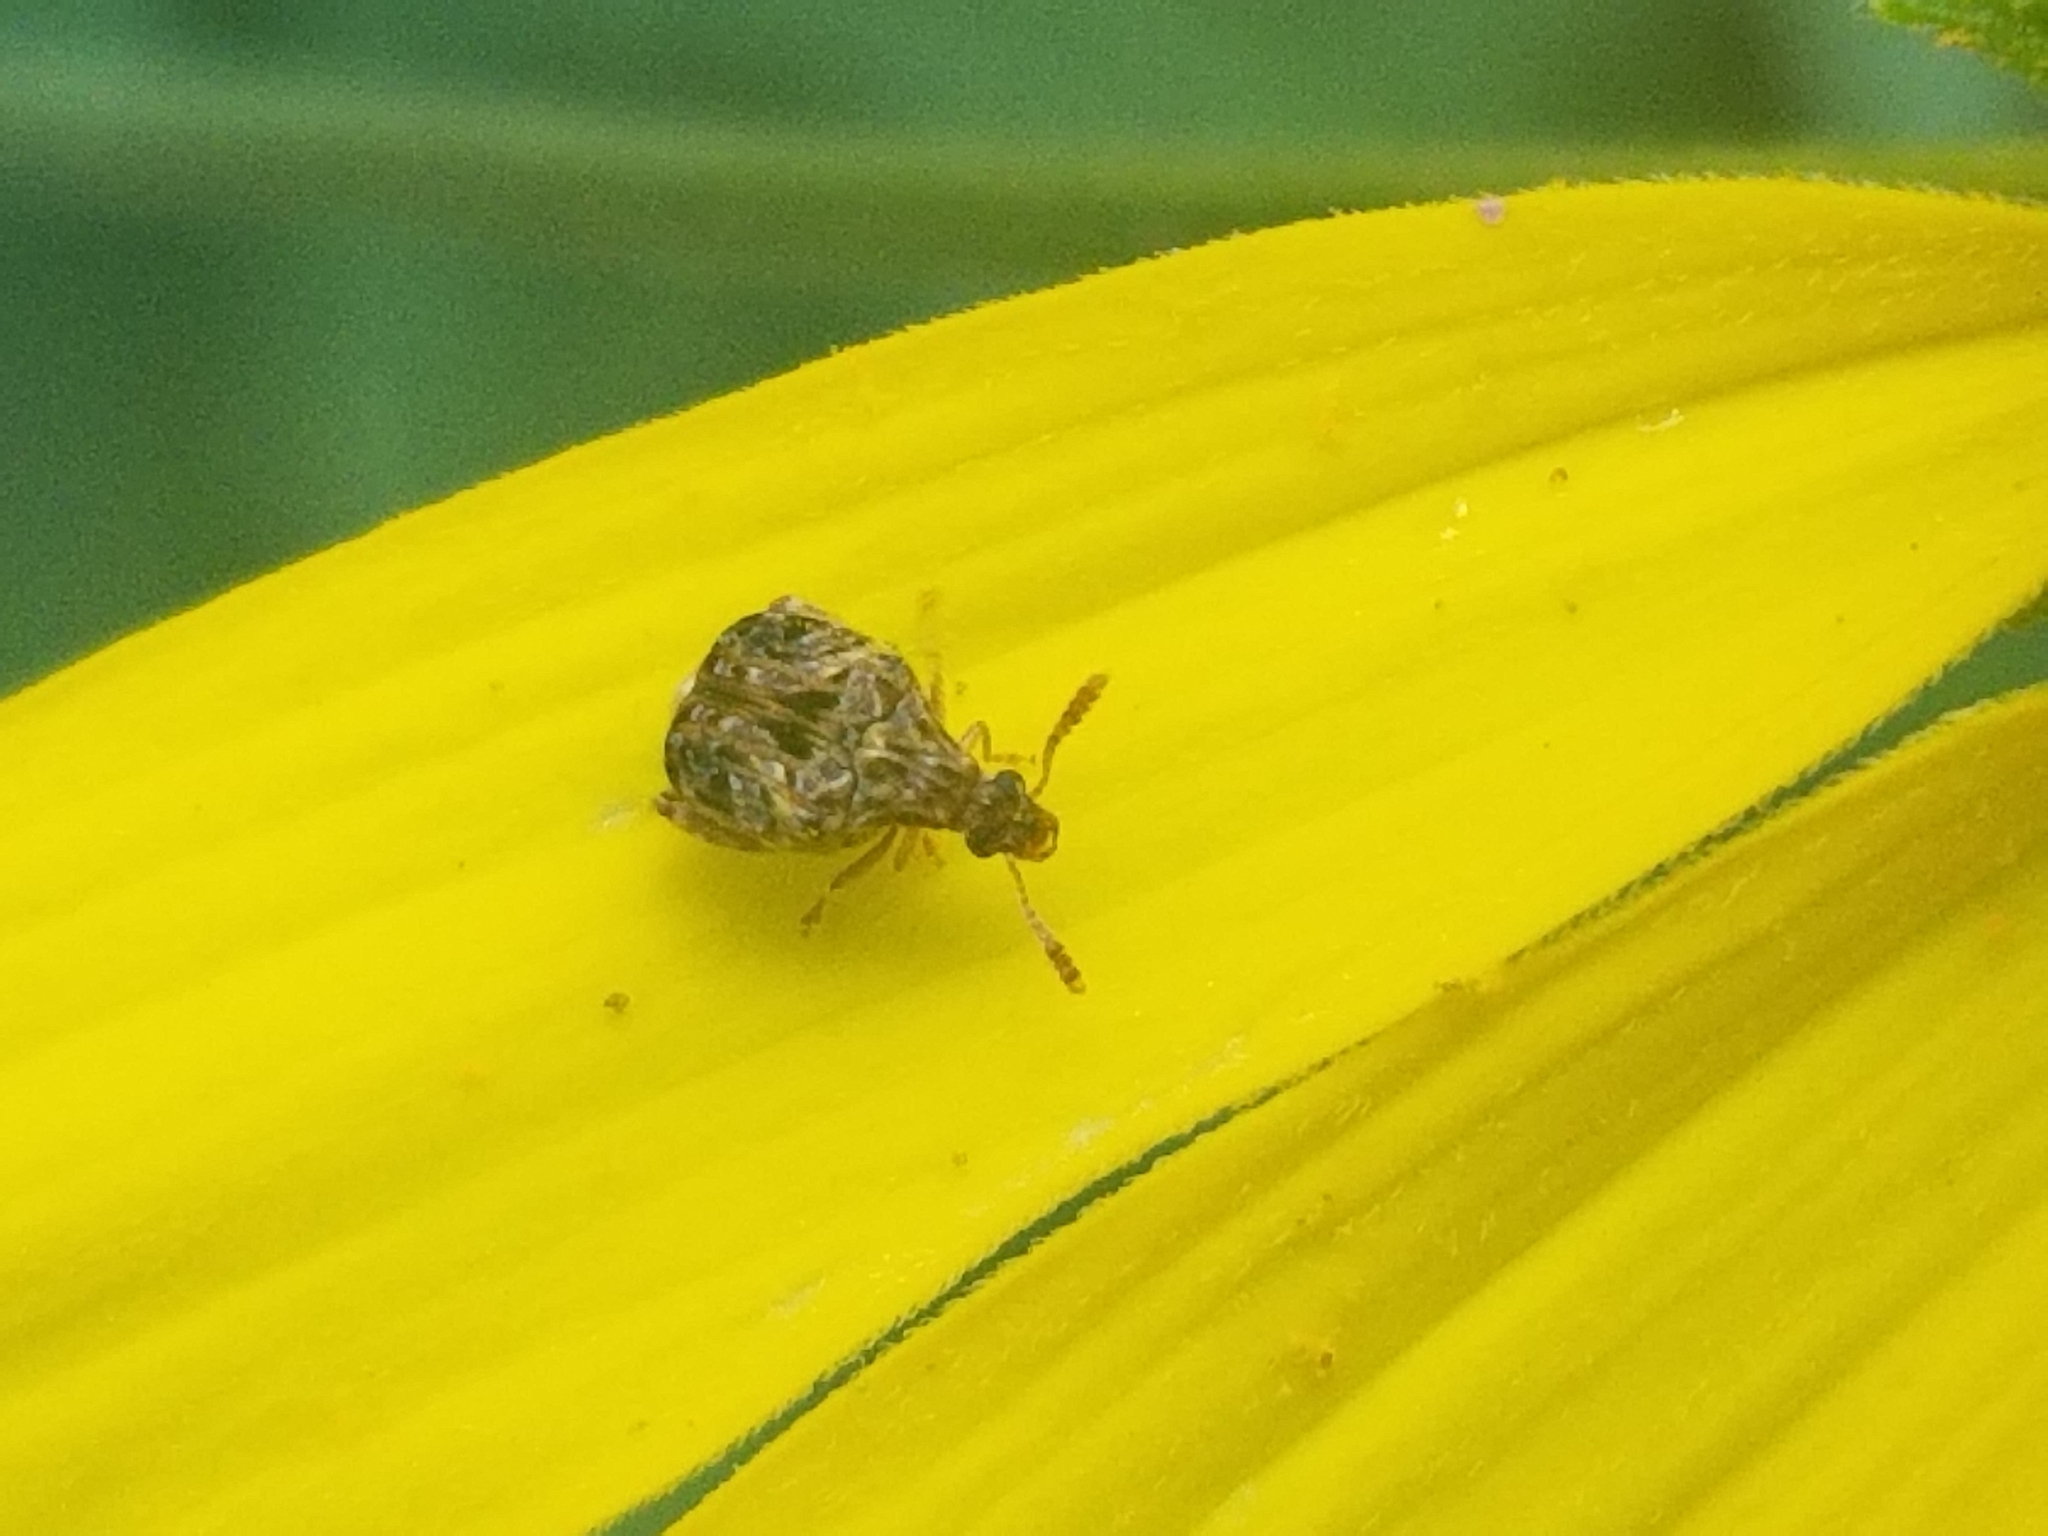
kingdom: Animalia
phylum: Arthropoda
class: Insecta
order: Coleoptera
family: Chrysomelidae
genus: Gibbobruchus
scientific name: Gibbobruchus mimus
